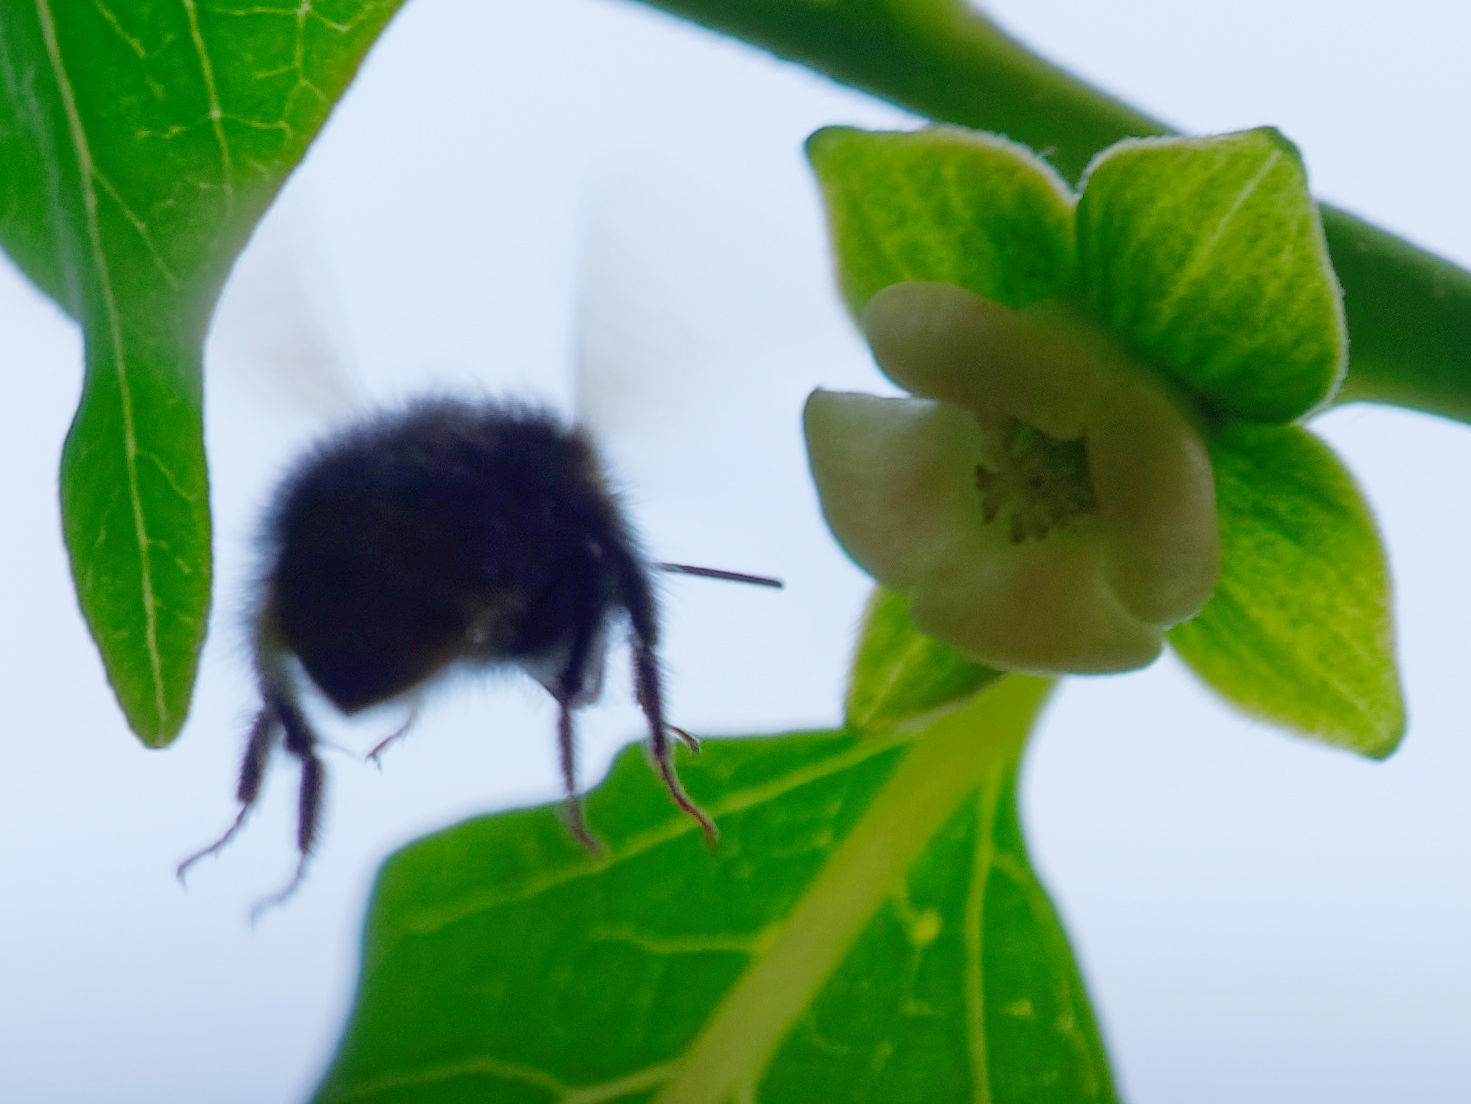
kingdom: Plantae
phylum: Tracheophyta
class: Magnoliopsida
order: Ericales
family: Ebenaceae
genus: Diospyros
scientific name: Diospyros lotus
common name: Date-plum
